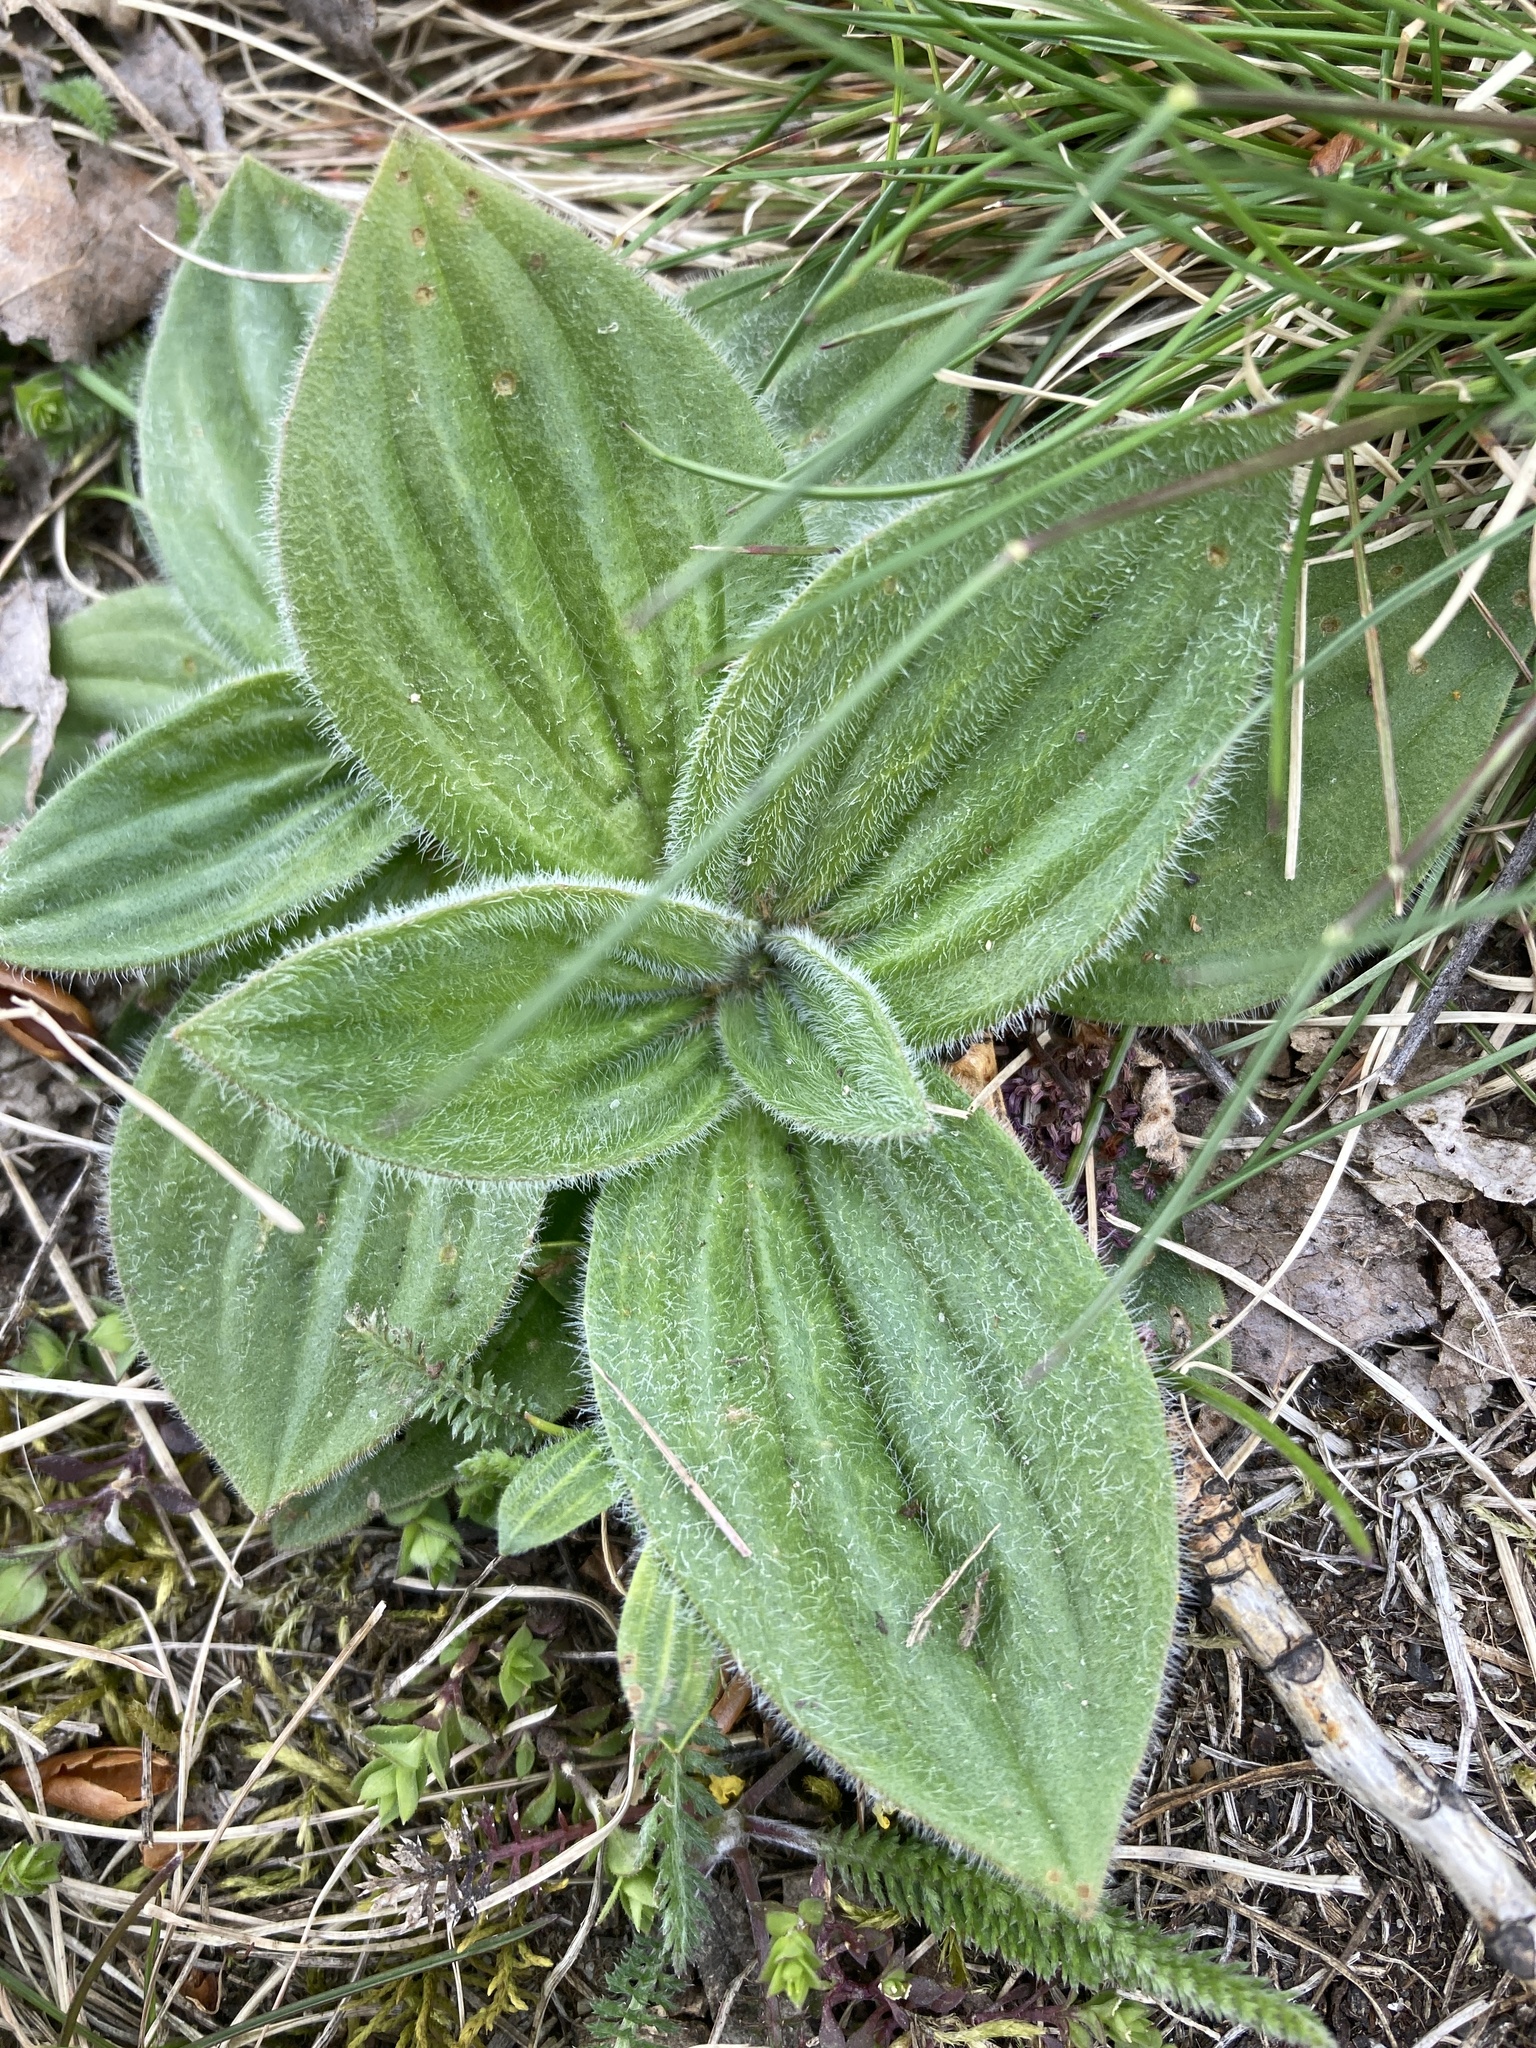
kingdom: Plantae
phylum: Tracheophyta
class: Magnoliopsida
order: Lamiales
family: Plantaginaceae
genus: Plantago
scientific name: Plantago media
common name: Hoary plantain
